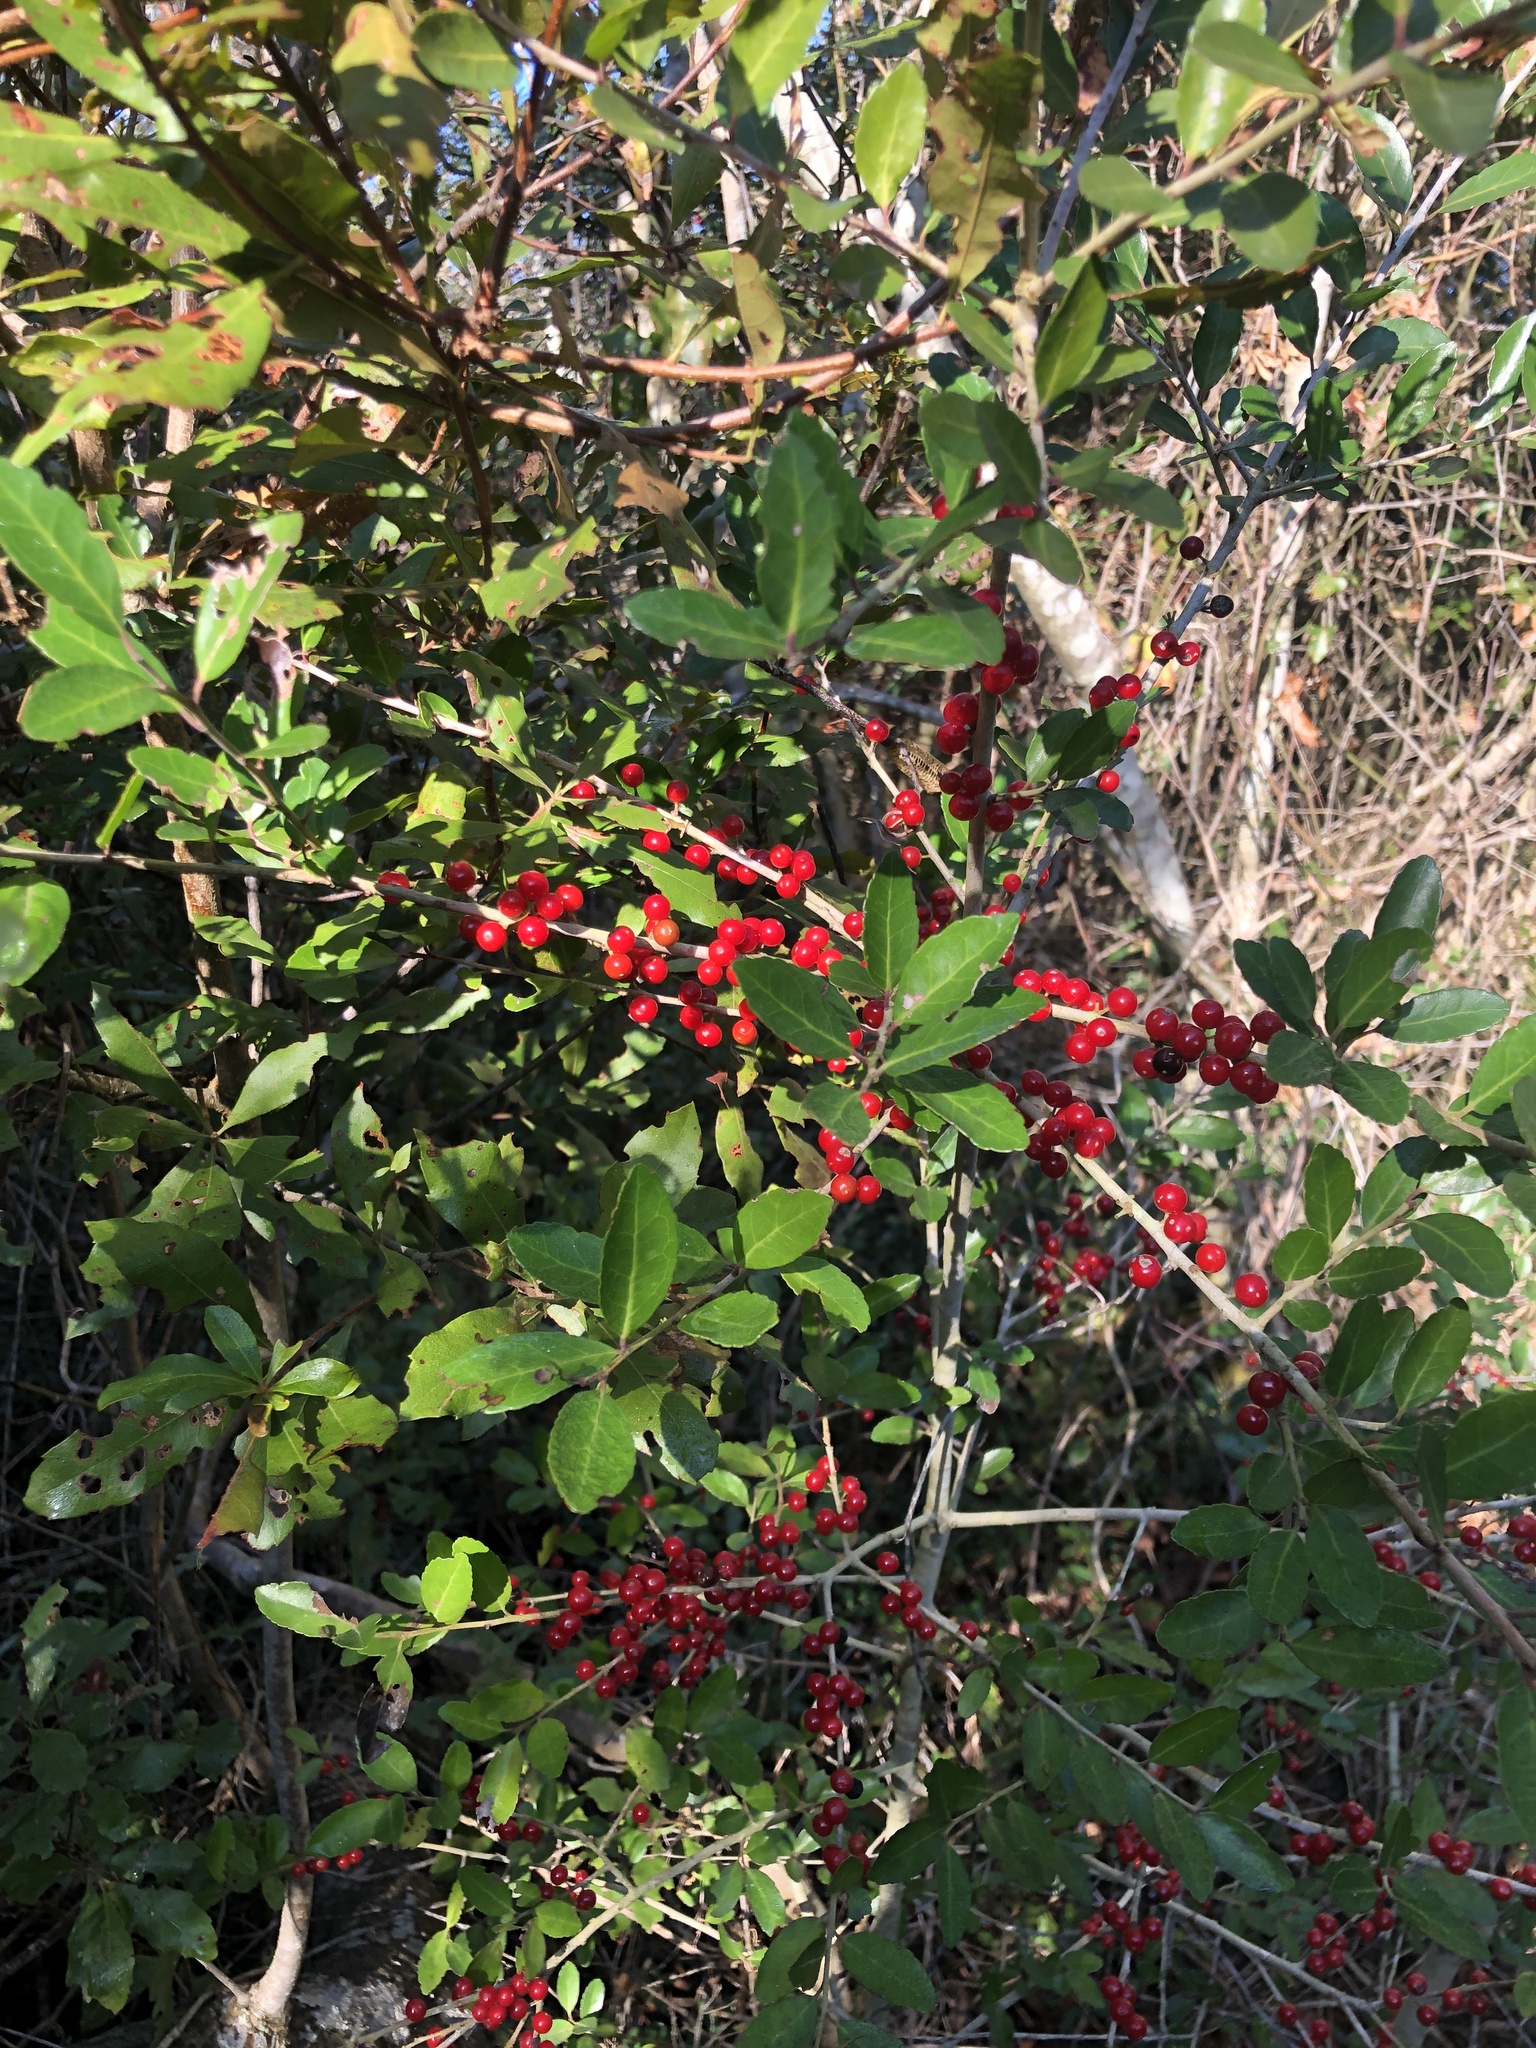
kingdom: Plantae
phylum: Tracheophyta
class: Magnoliopsida
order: Aquifoliales
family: Aquifoliaceae
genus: Ilex
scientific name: Ilex vomitoria
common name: Yaupon holly
